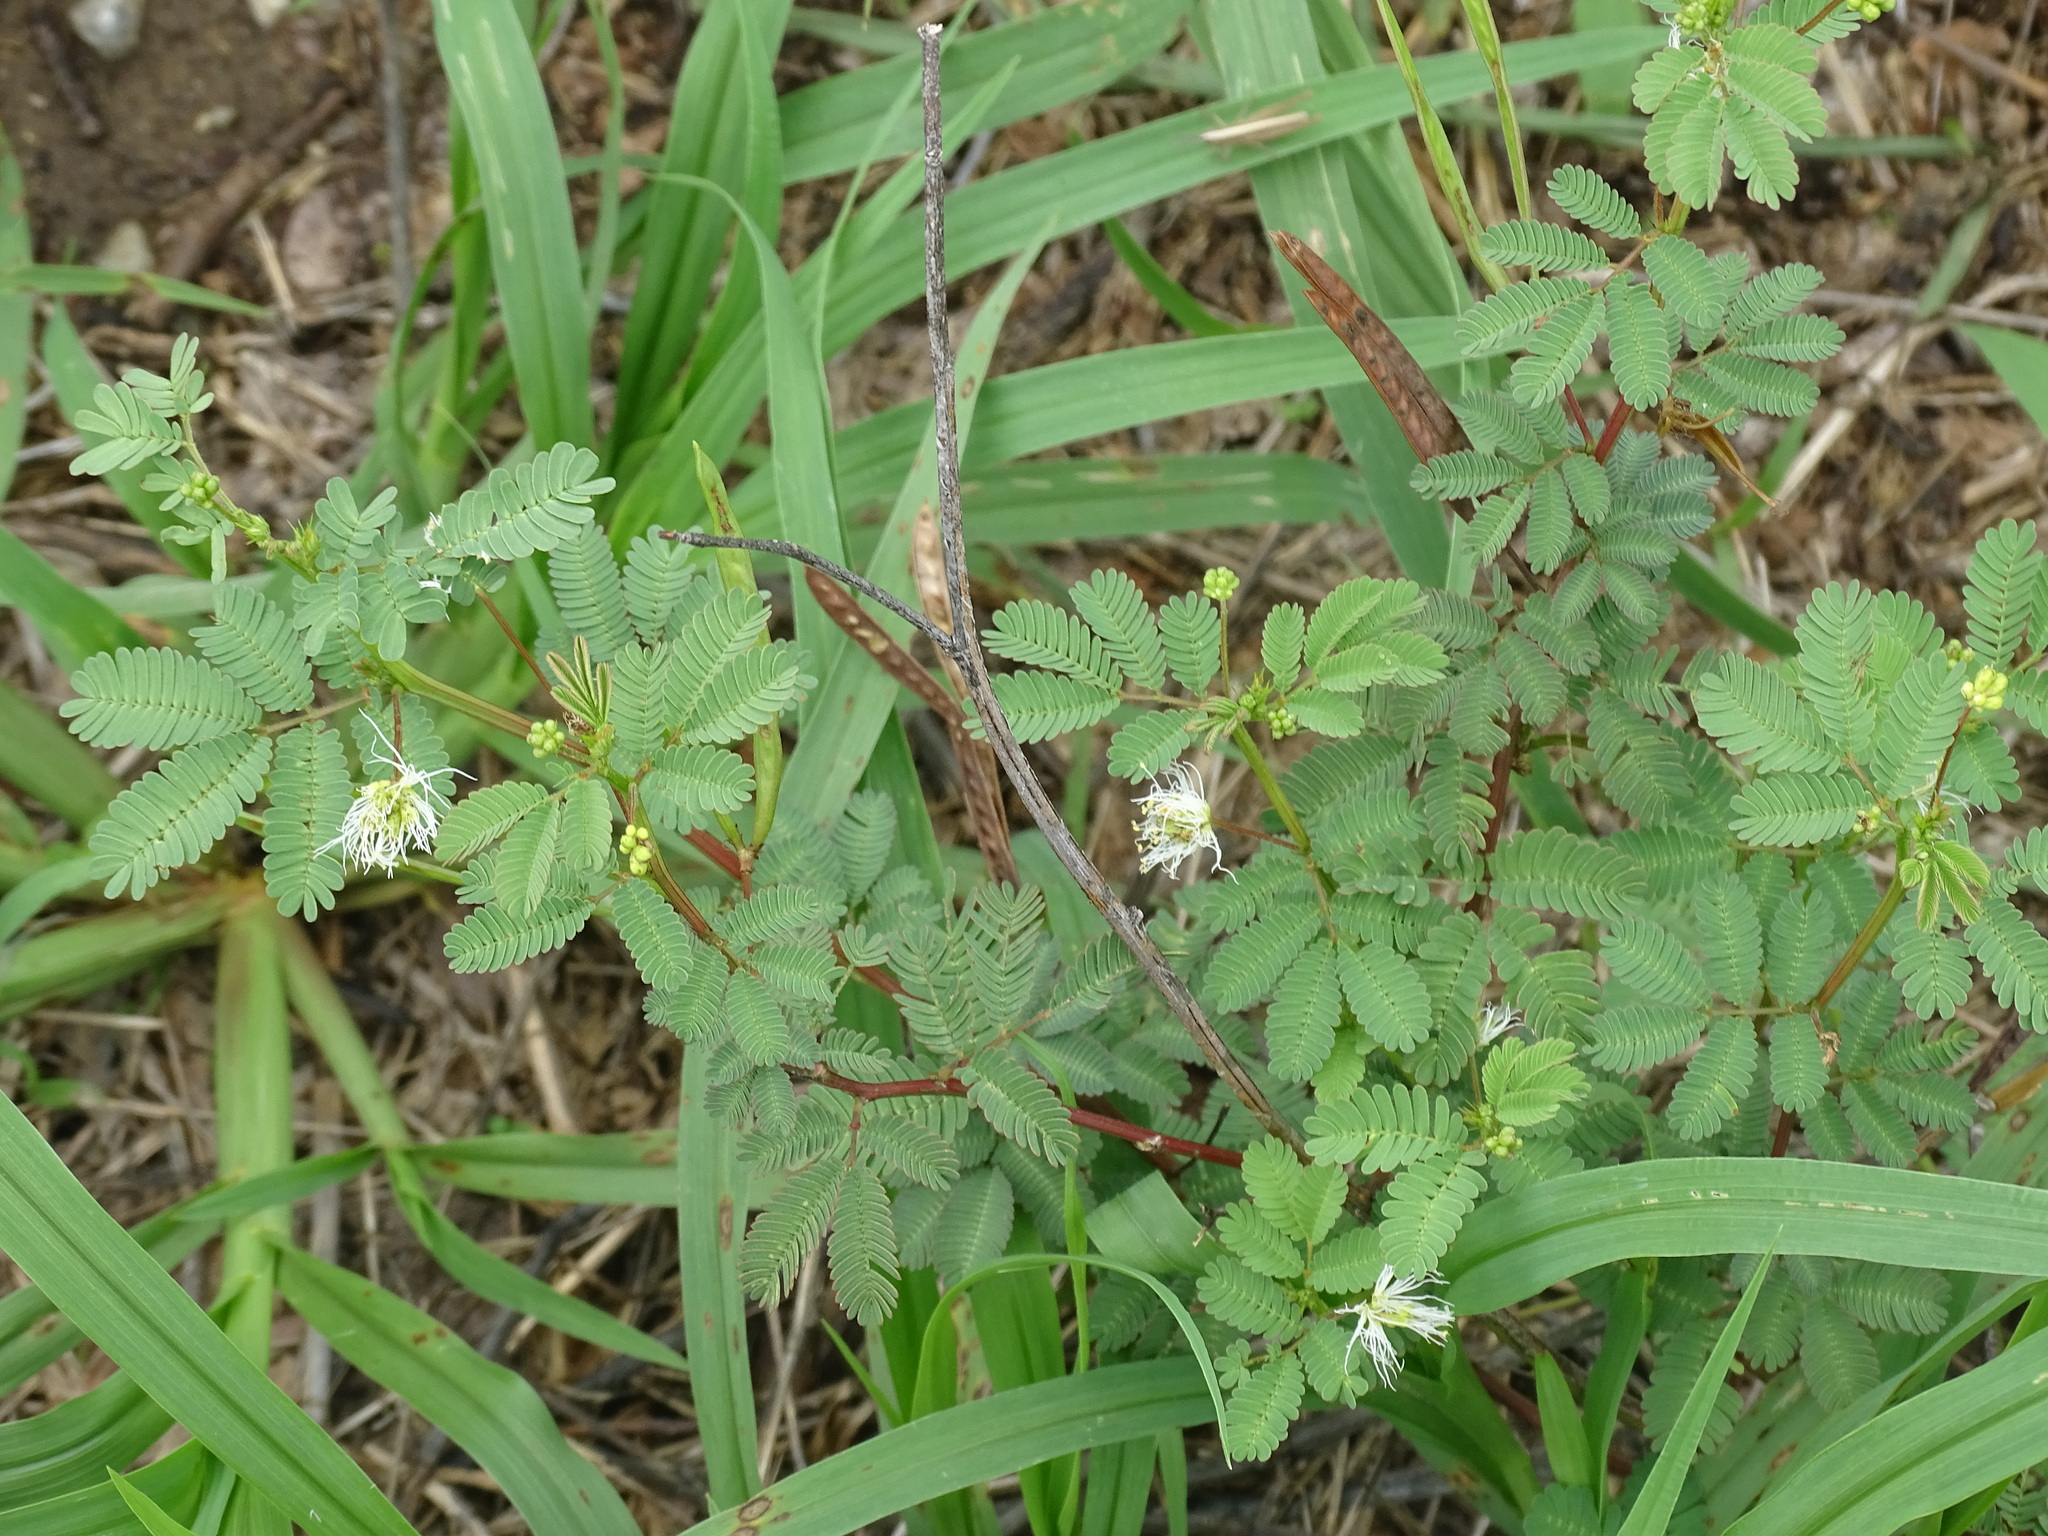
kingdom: Plantae
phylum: Tracheophyta
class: Magnoliopsida
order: Fabales
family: Fabaceae
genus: Desmanthus
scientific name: Desmanthus virgatus
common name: Wild tantan
